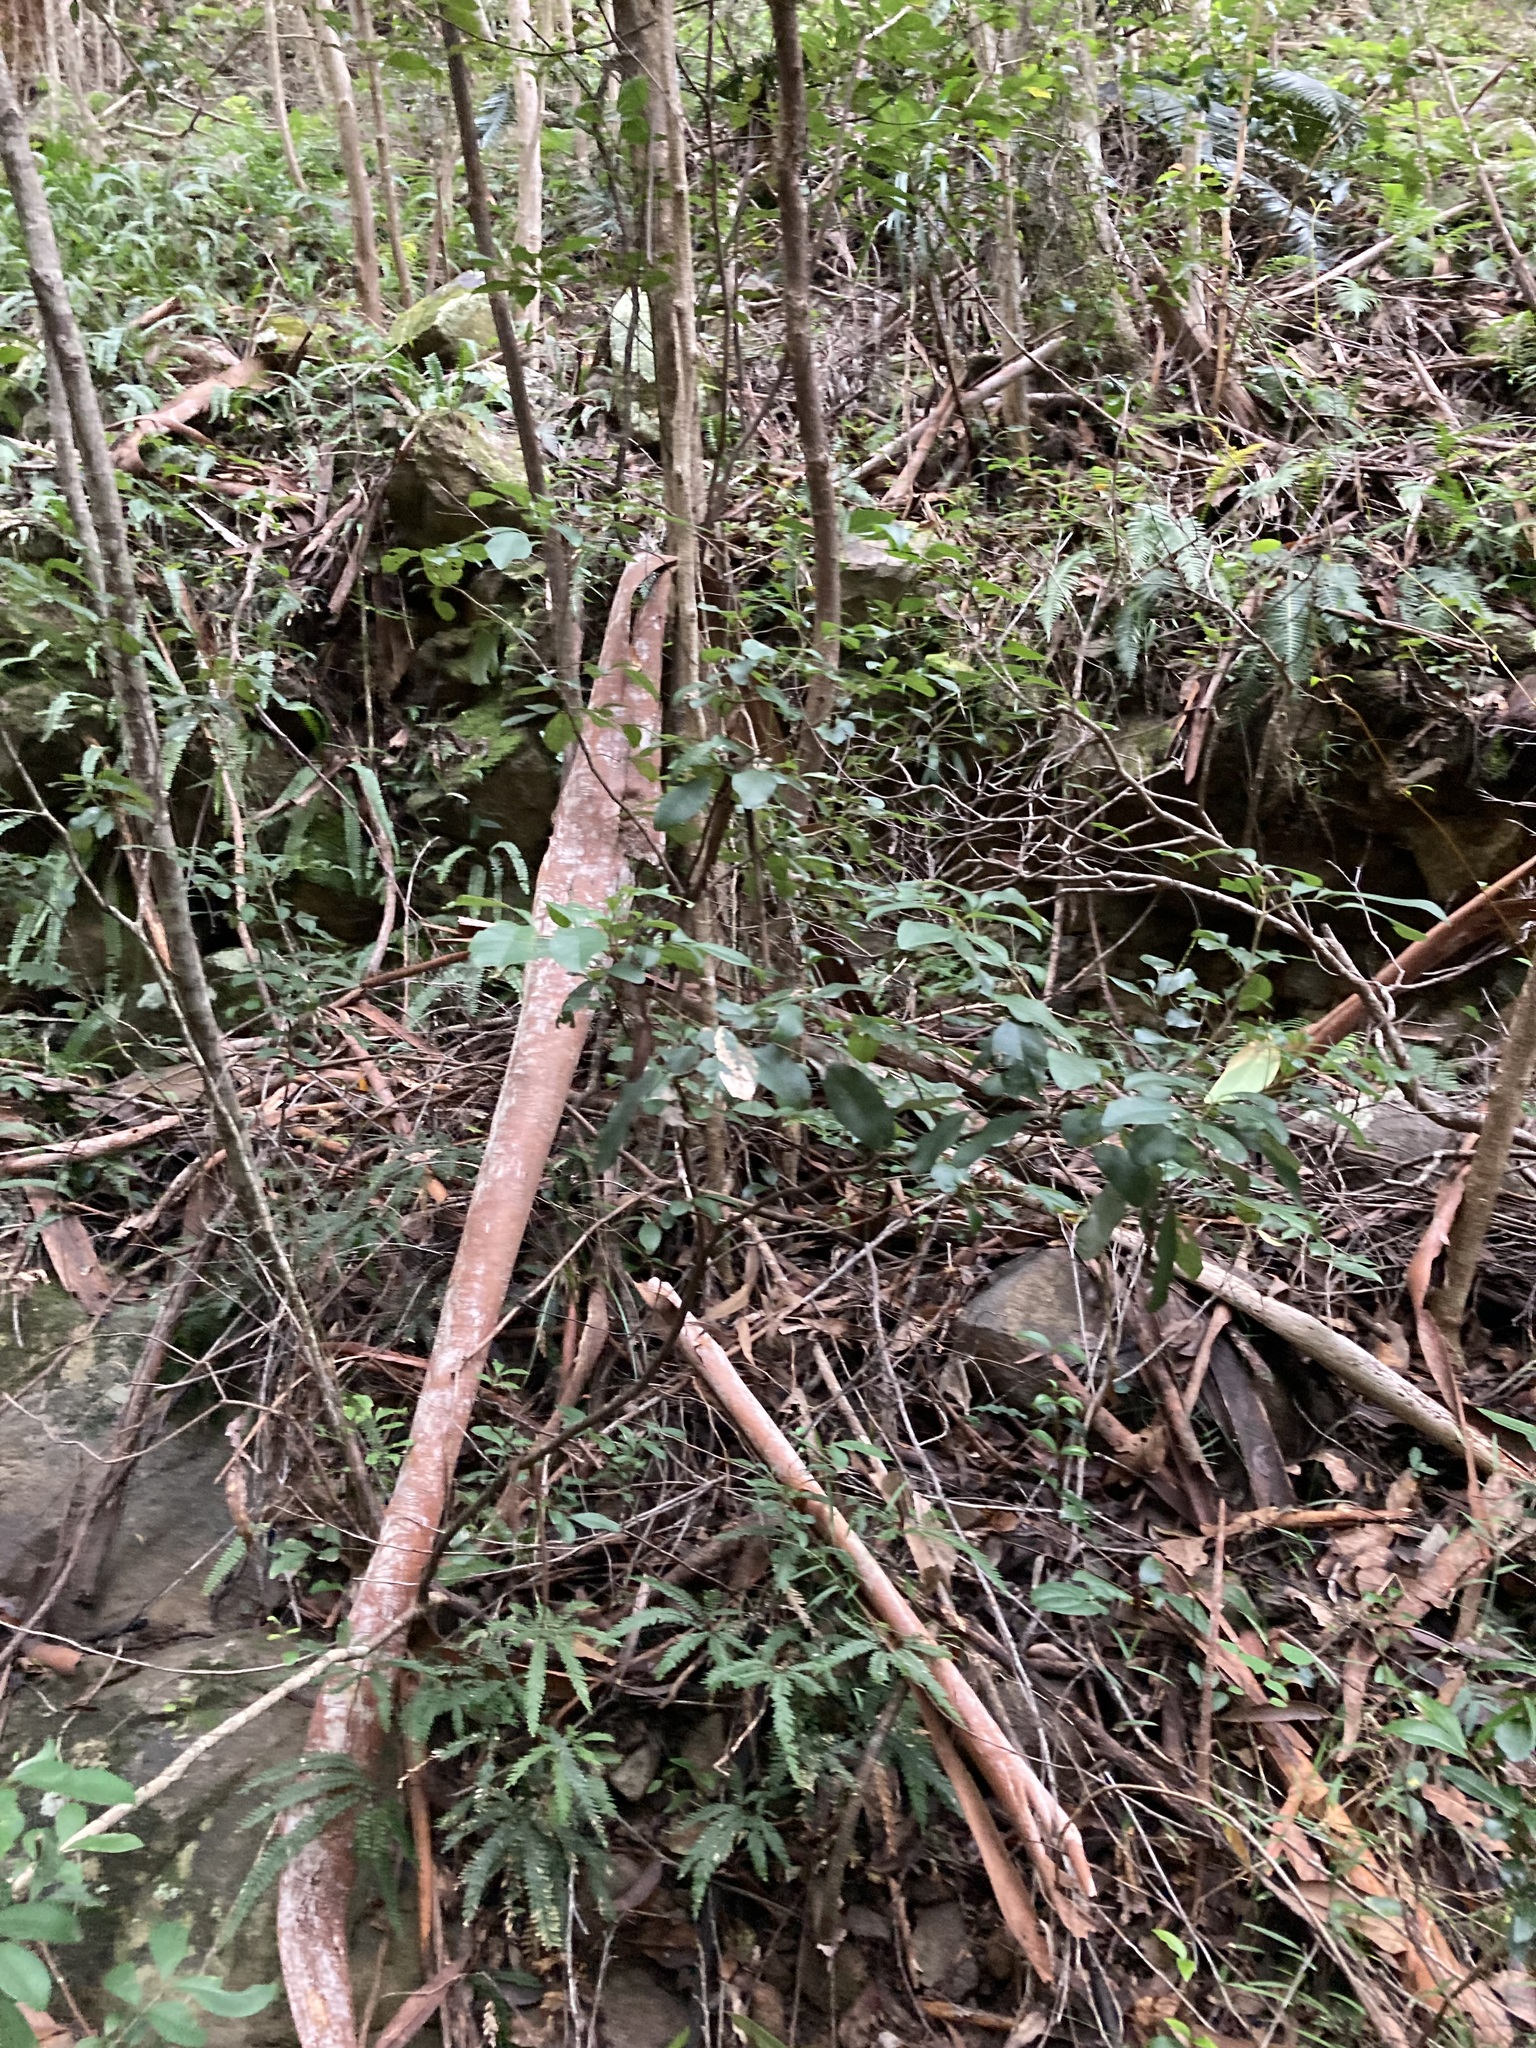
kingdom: Plantae
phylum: Tracheophyta
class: Magnoliopsida
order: Sapindales
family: Sapindaceae
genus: Guioa
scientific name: Guioa semiglauca
